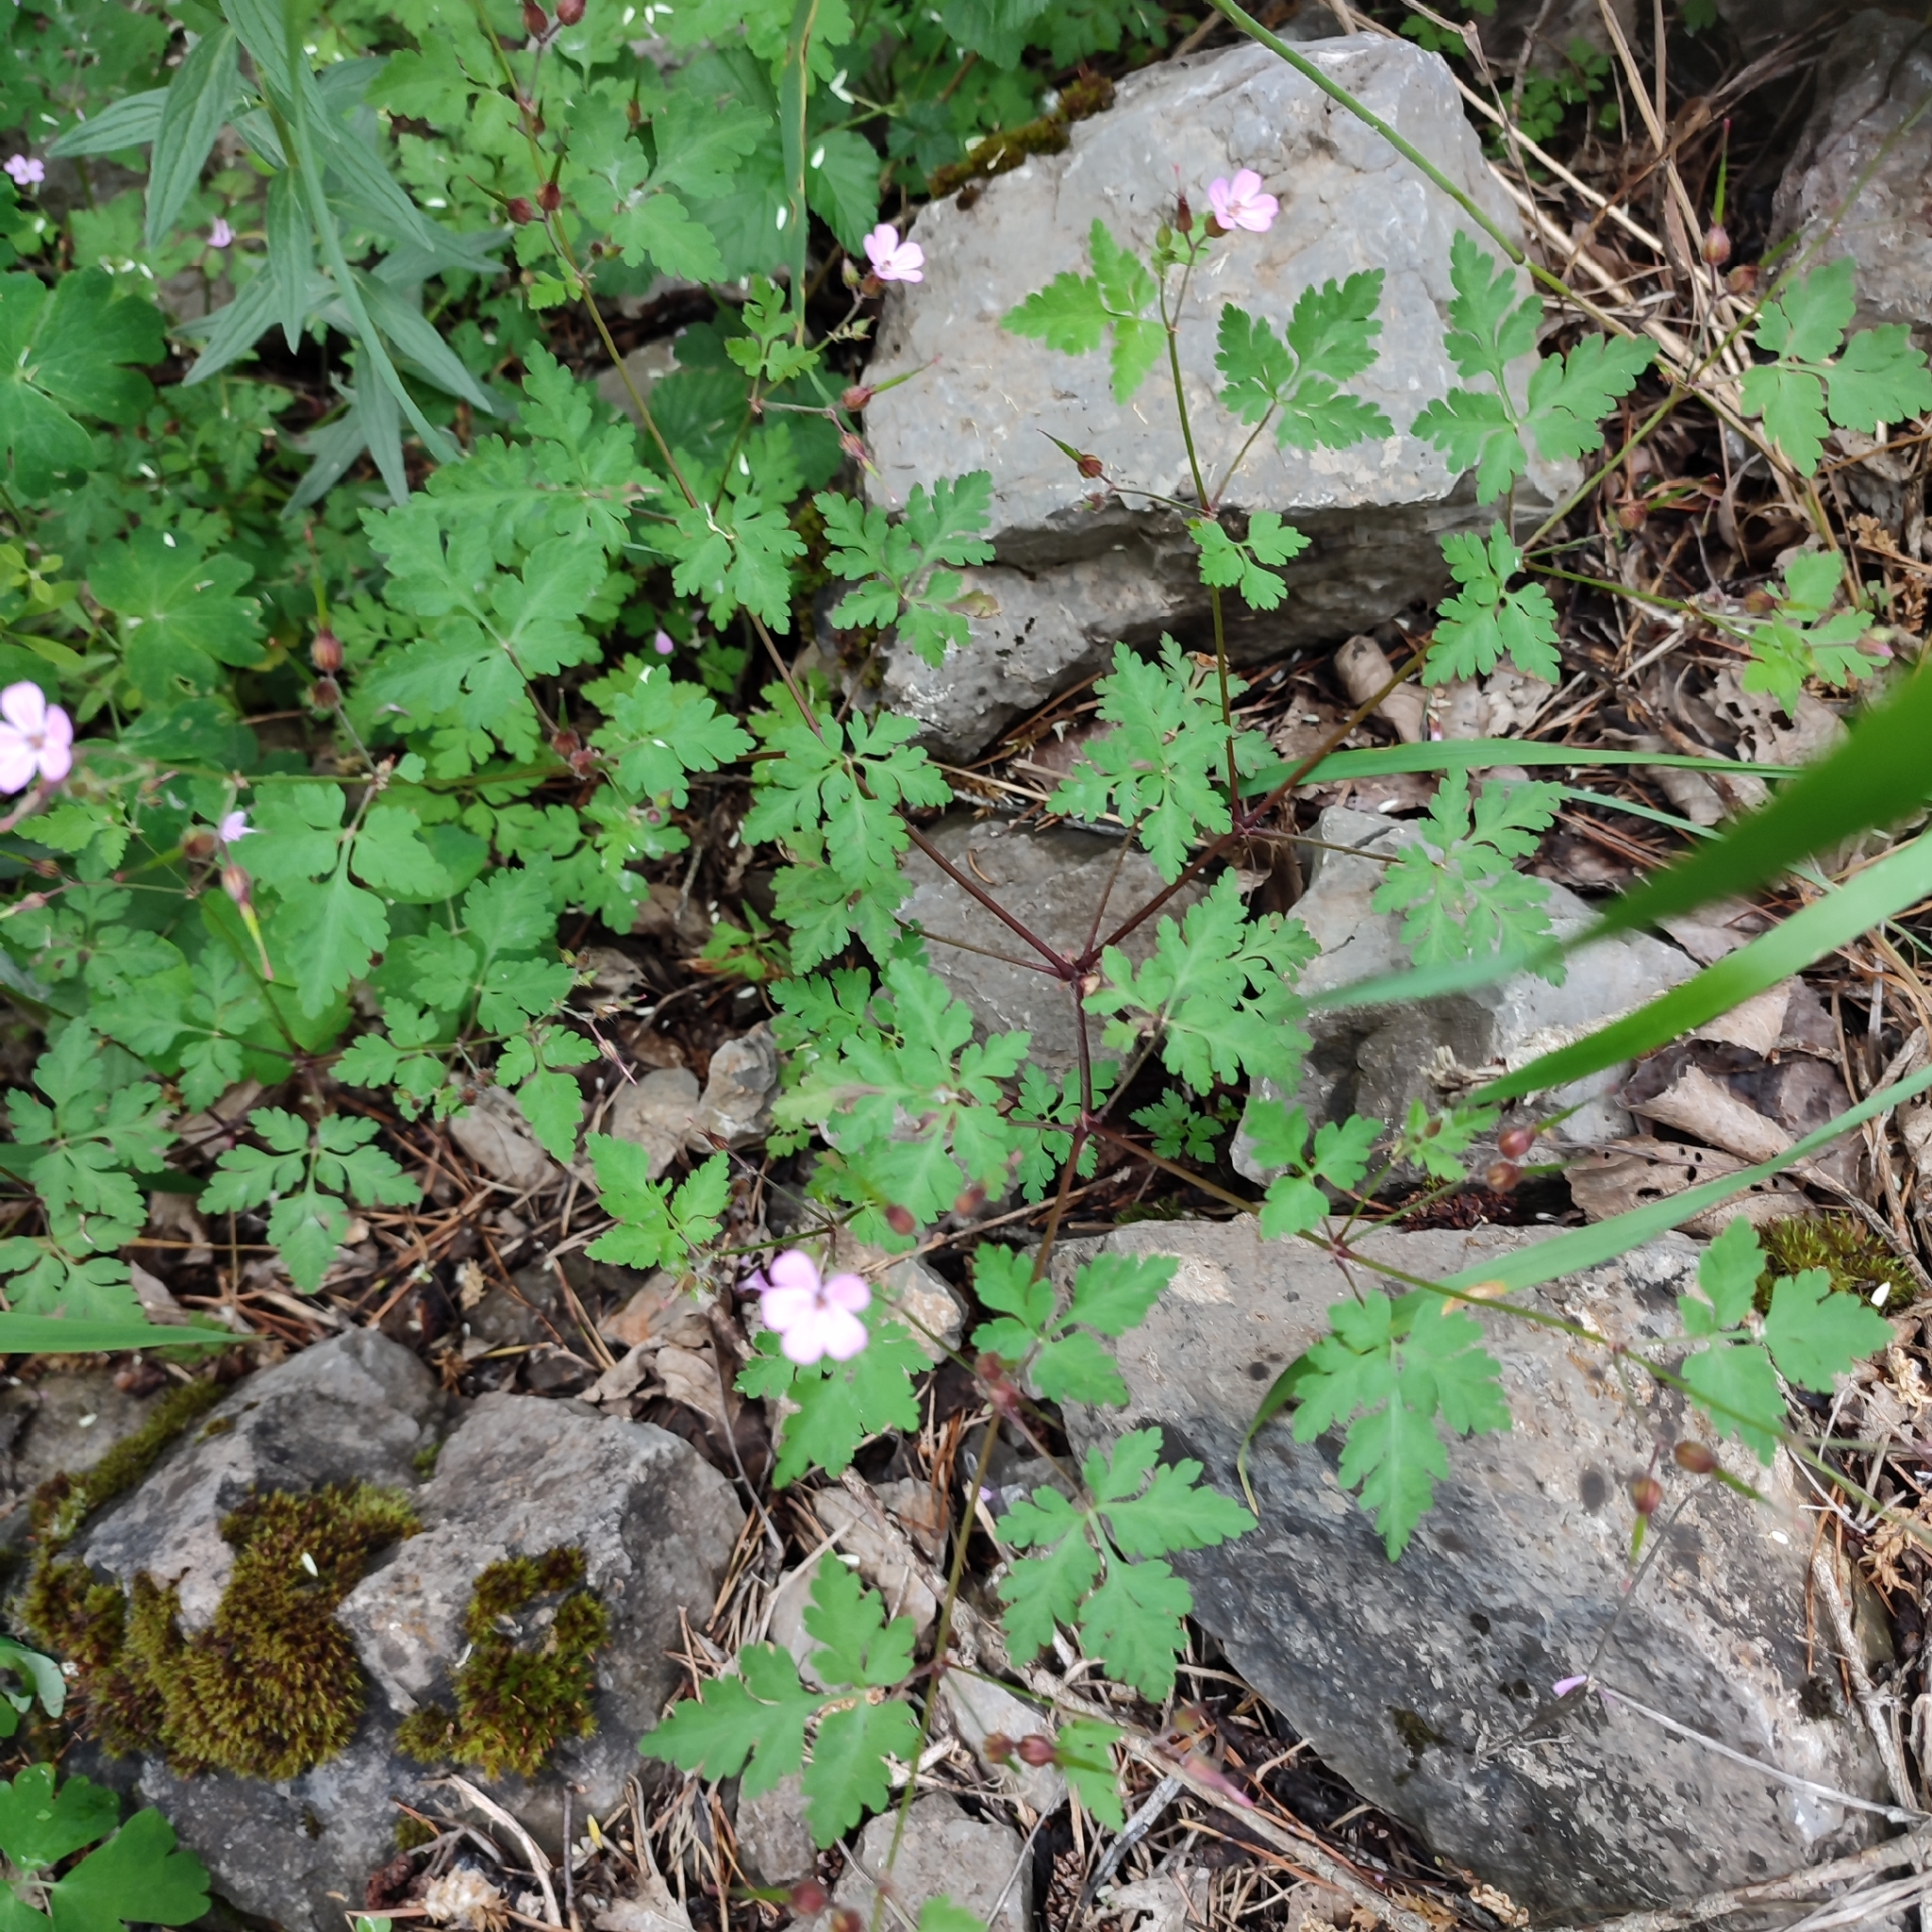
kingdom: Plantae
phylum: Tracheophyta
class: Magnoliopsida
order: Geraniales
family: Geraniaceae
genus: Geranium
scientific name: Geranium robertianum
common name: Herb-robert
